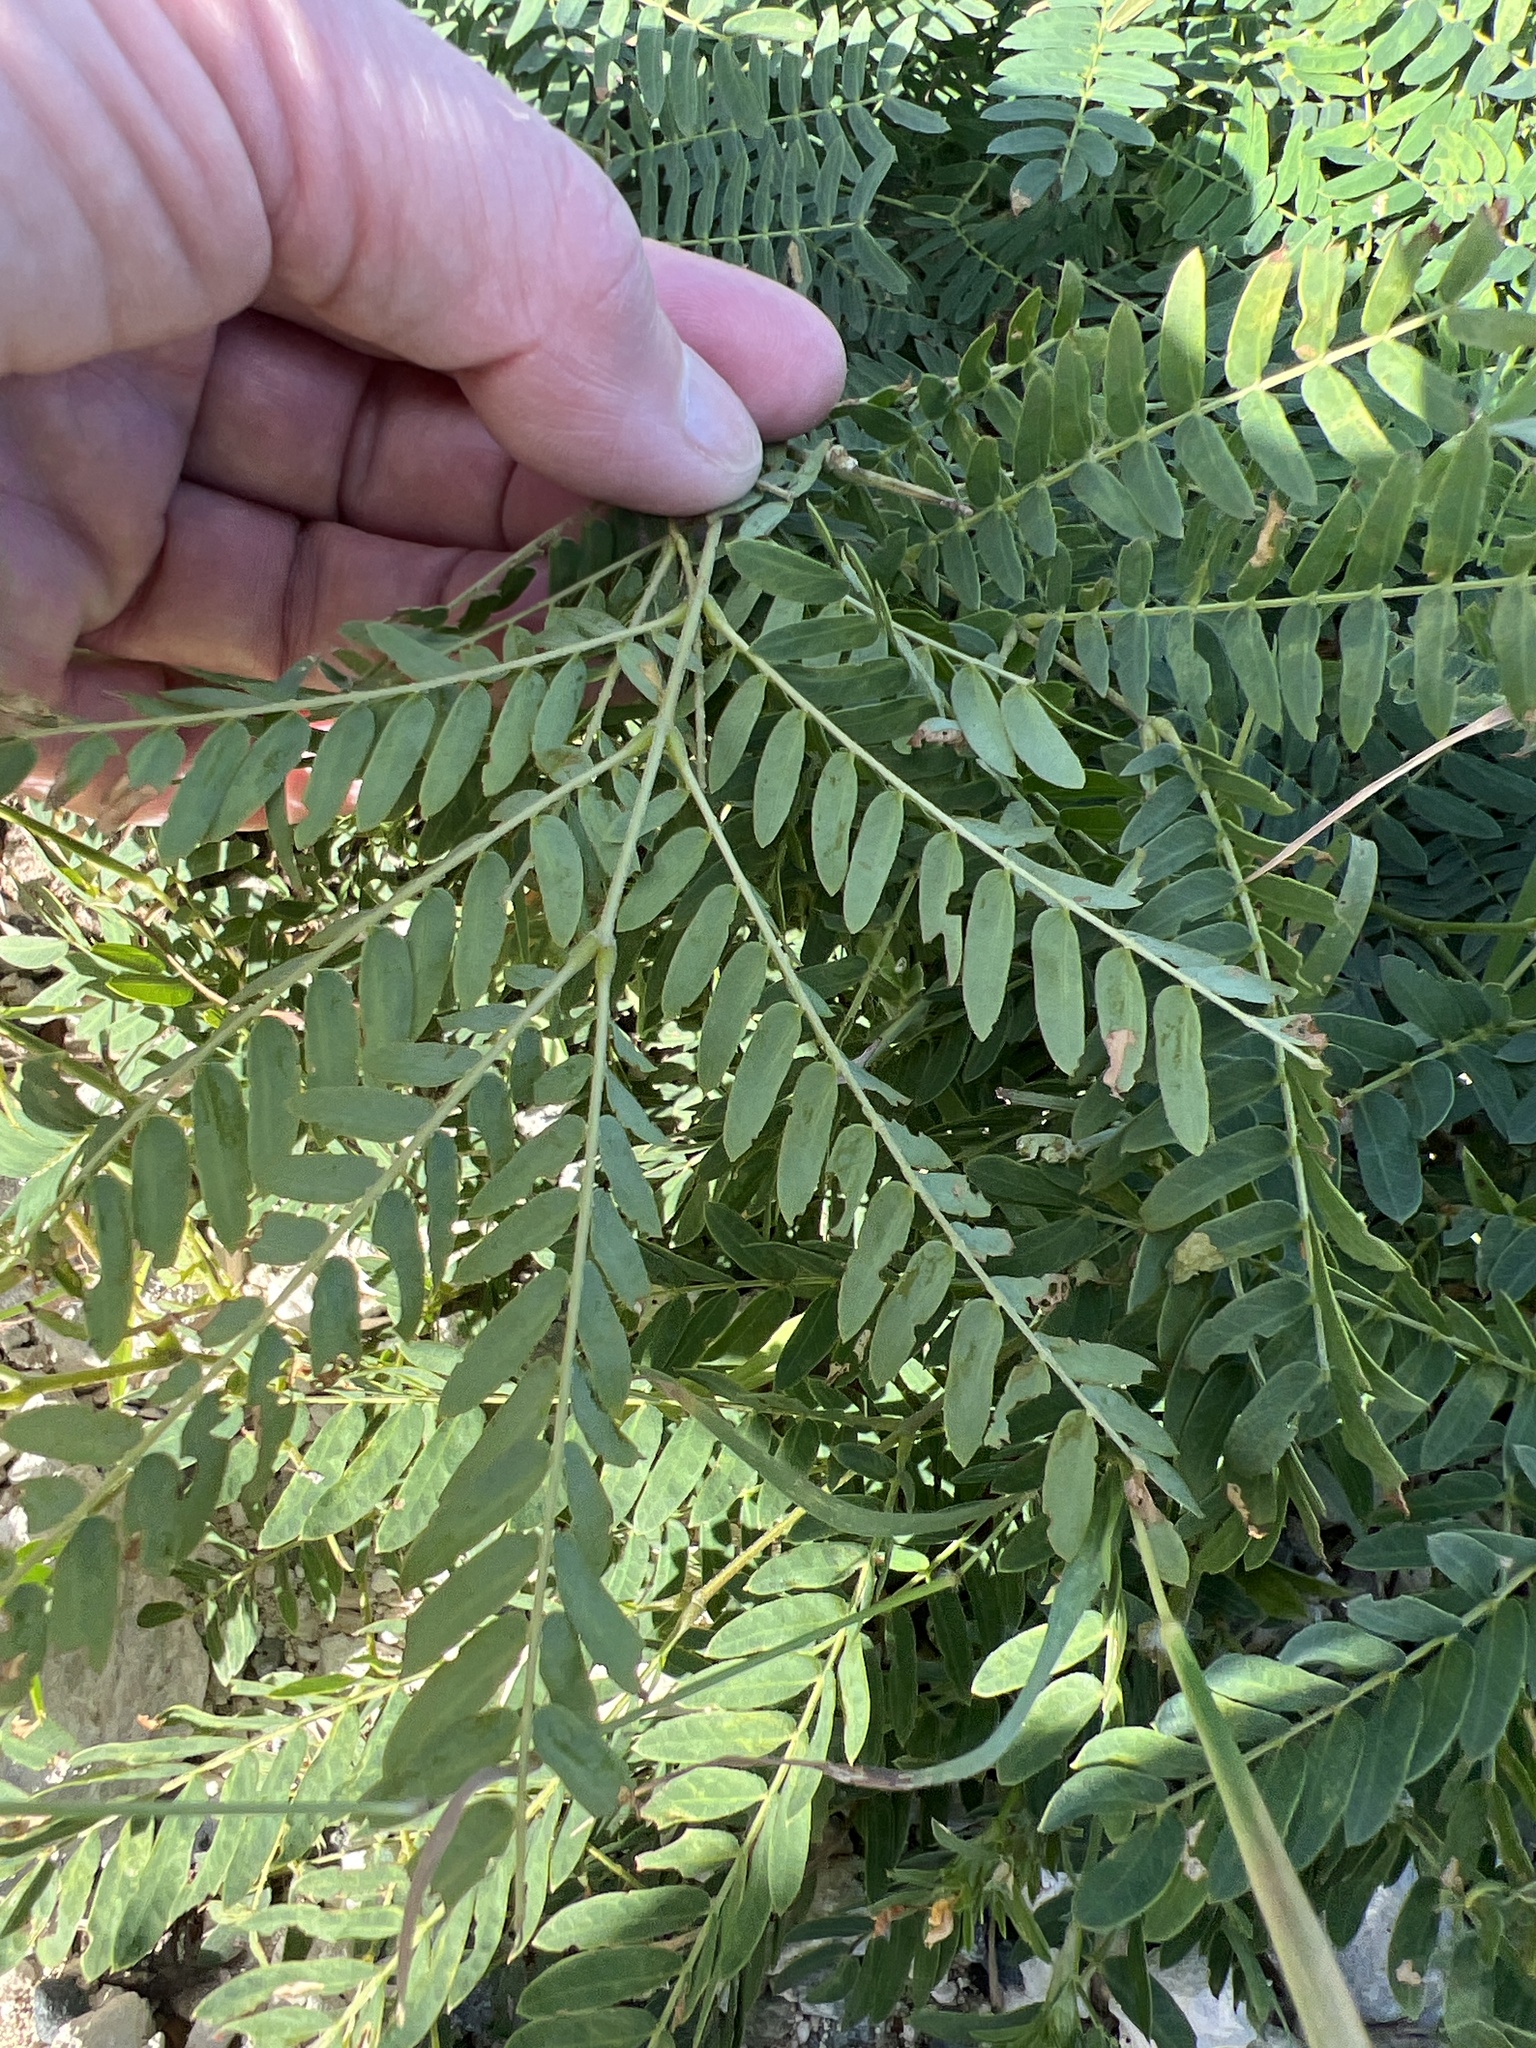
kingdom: Plantae
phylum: Tracheophyta
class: Magnoliopsida
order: Fabales
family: Fabaceae
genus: Leucaena
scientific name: Leucaena leucocephala
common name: White leadtree
